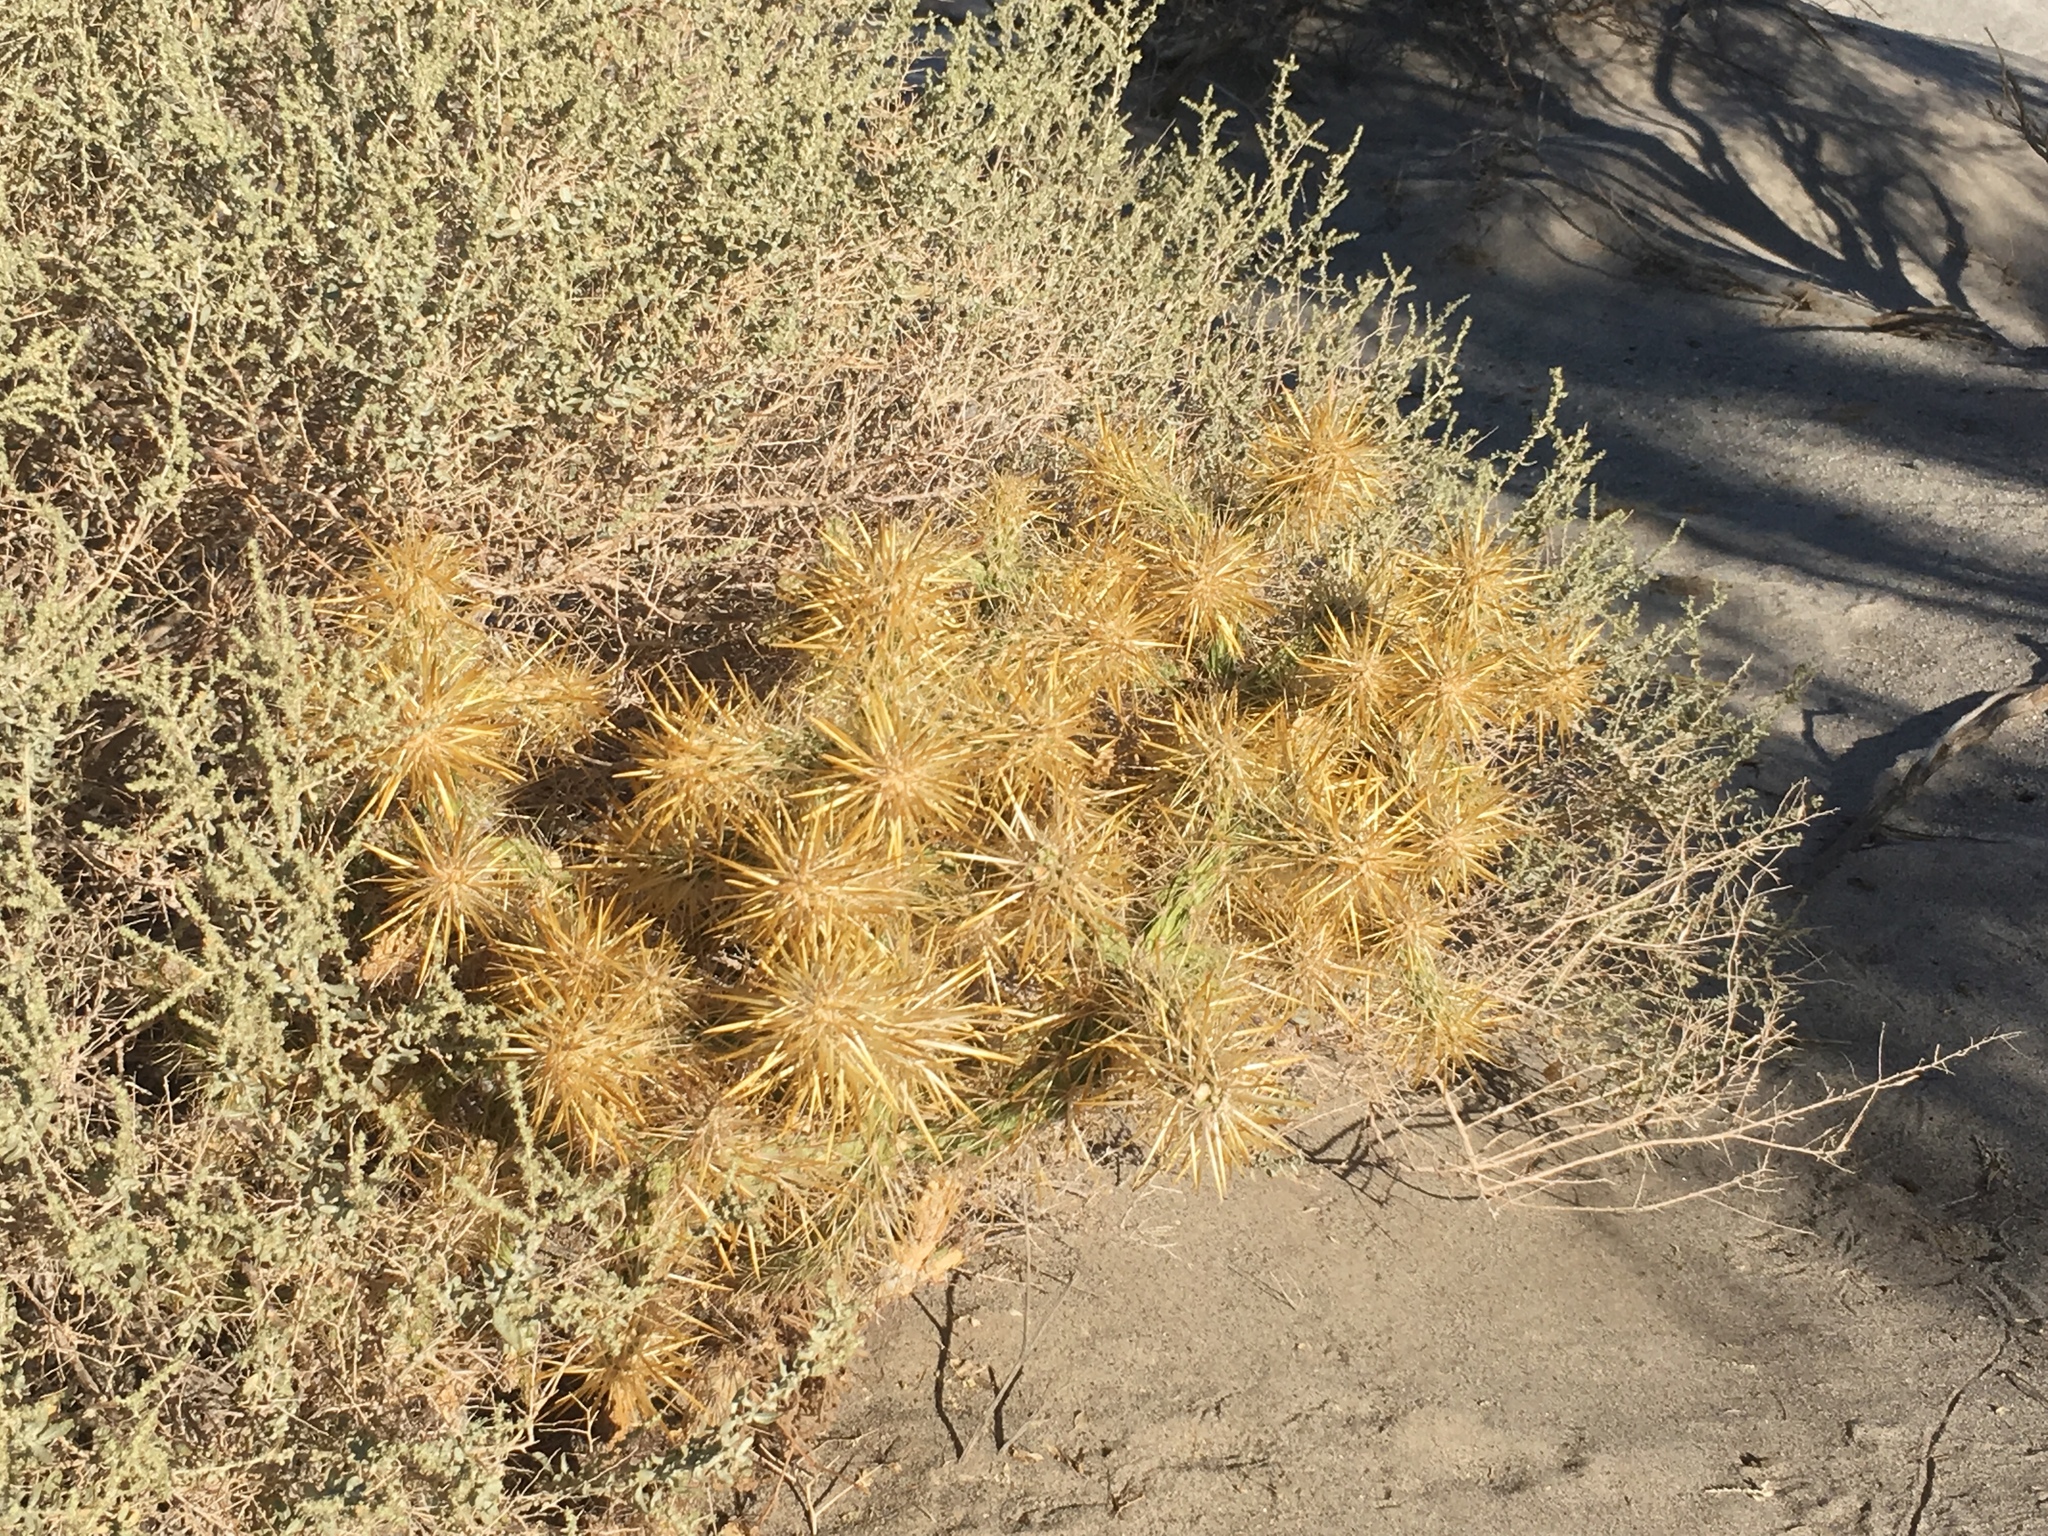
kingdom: Plantae
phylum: Tracheophyta
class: Magnoliopsida
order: Caryophyllales
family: Cactaceae
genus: Cylindropuntia
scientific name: Cylindropuntia echinocarpa
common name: Ground cholla
